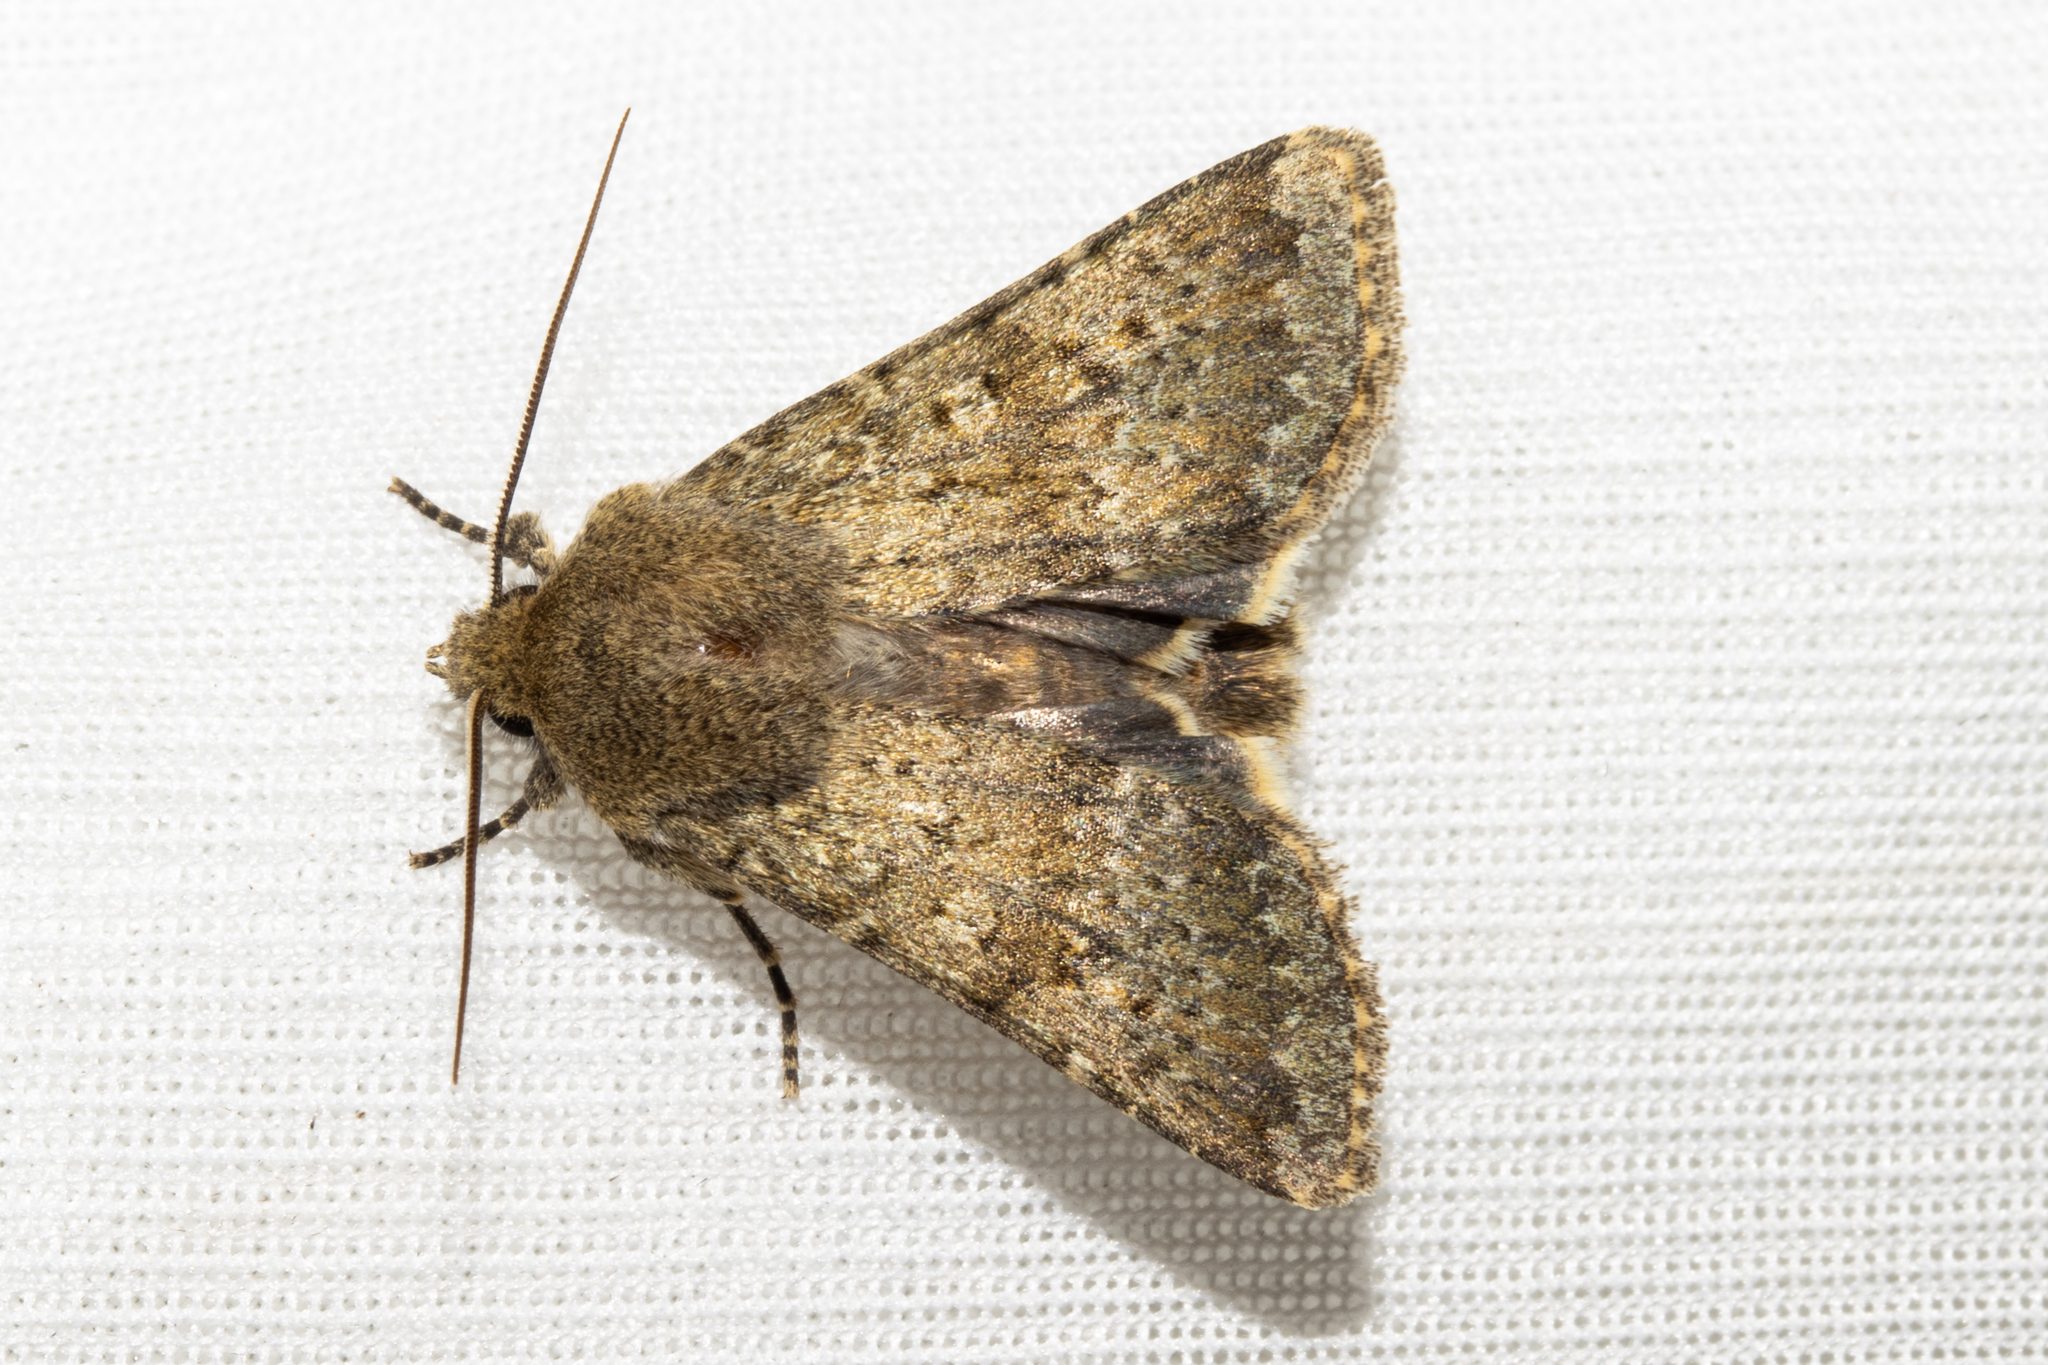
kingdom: Animalia
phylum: Arthropoda
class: Insecta
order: Lepidoptera
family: Noctuidae
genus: Ichneutica
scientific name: Ichneutica moderata
